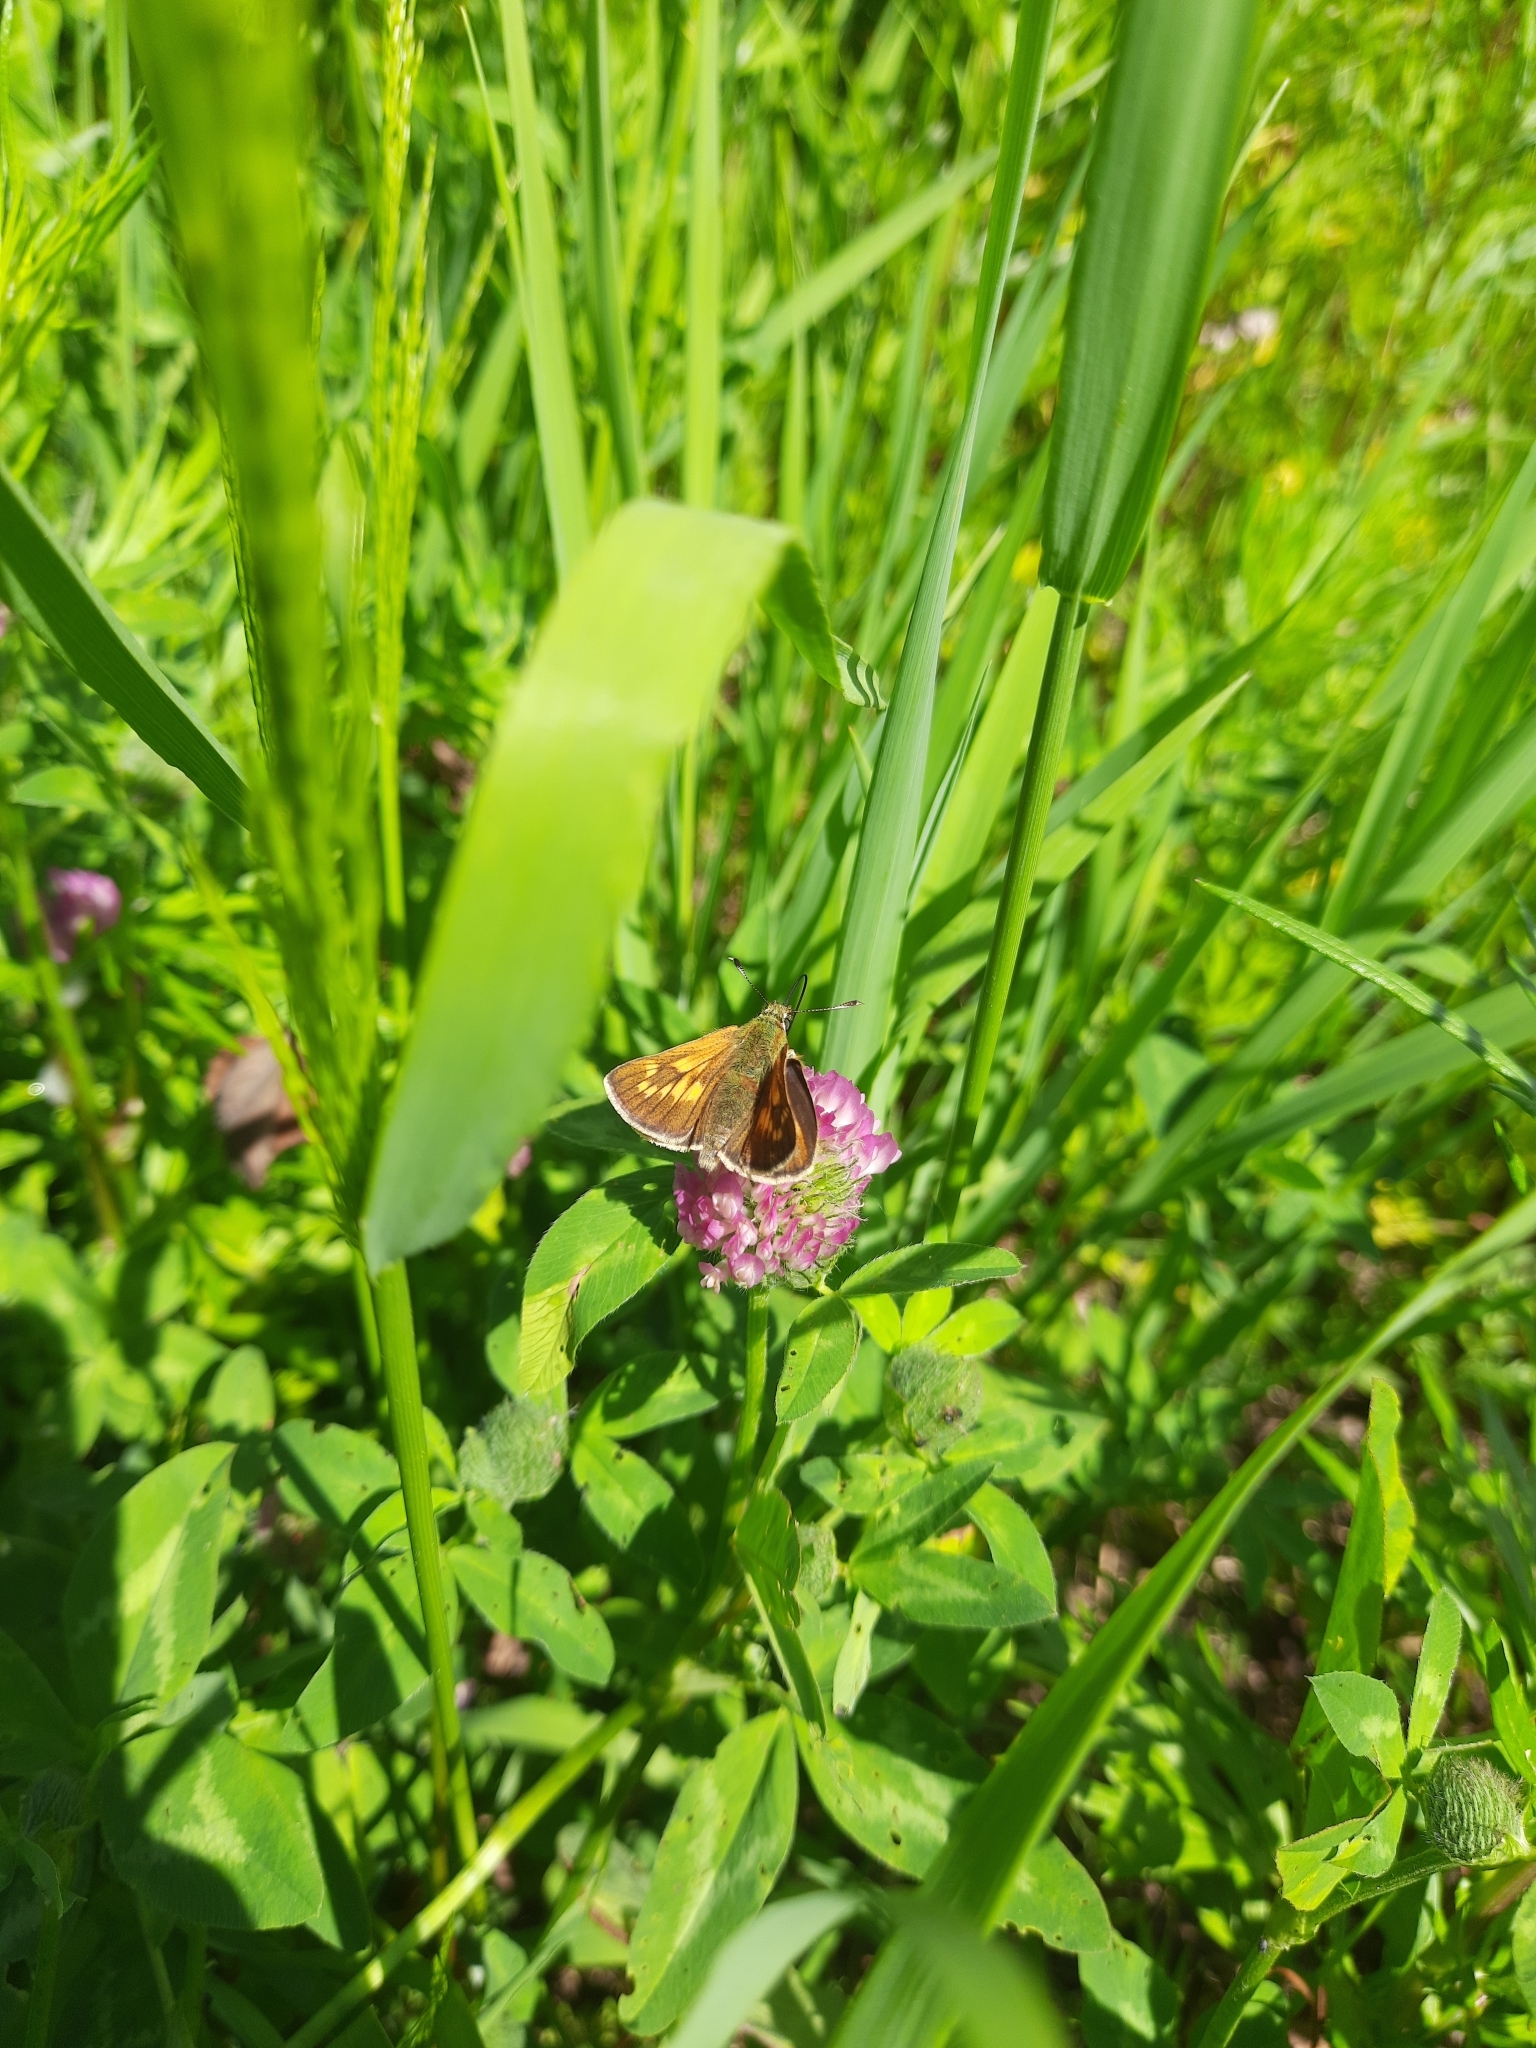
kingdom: Animalia
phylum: Arthropoda
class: Insecta
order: Lepidoptera
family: Hesperiidae
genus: Ochlodes
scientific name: Ochlodes venata
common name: Large skipper
